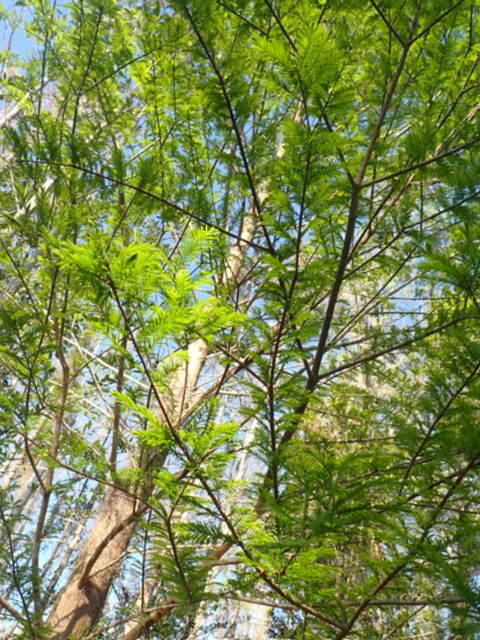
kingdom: Plantae
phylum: Tracheophyta
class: Pinopsida
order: Pinales
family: Cupressaceae
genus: Taxodium
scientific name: Taxodium distichum
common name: Bald cypress
